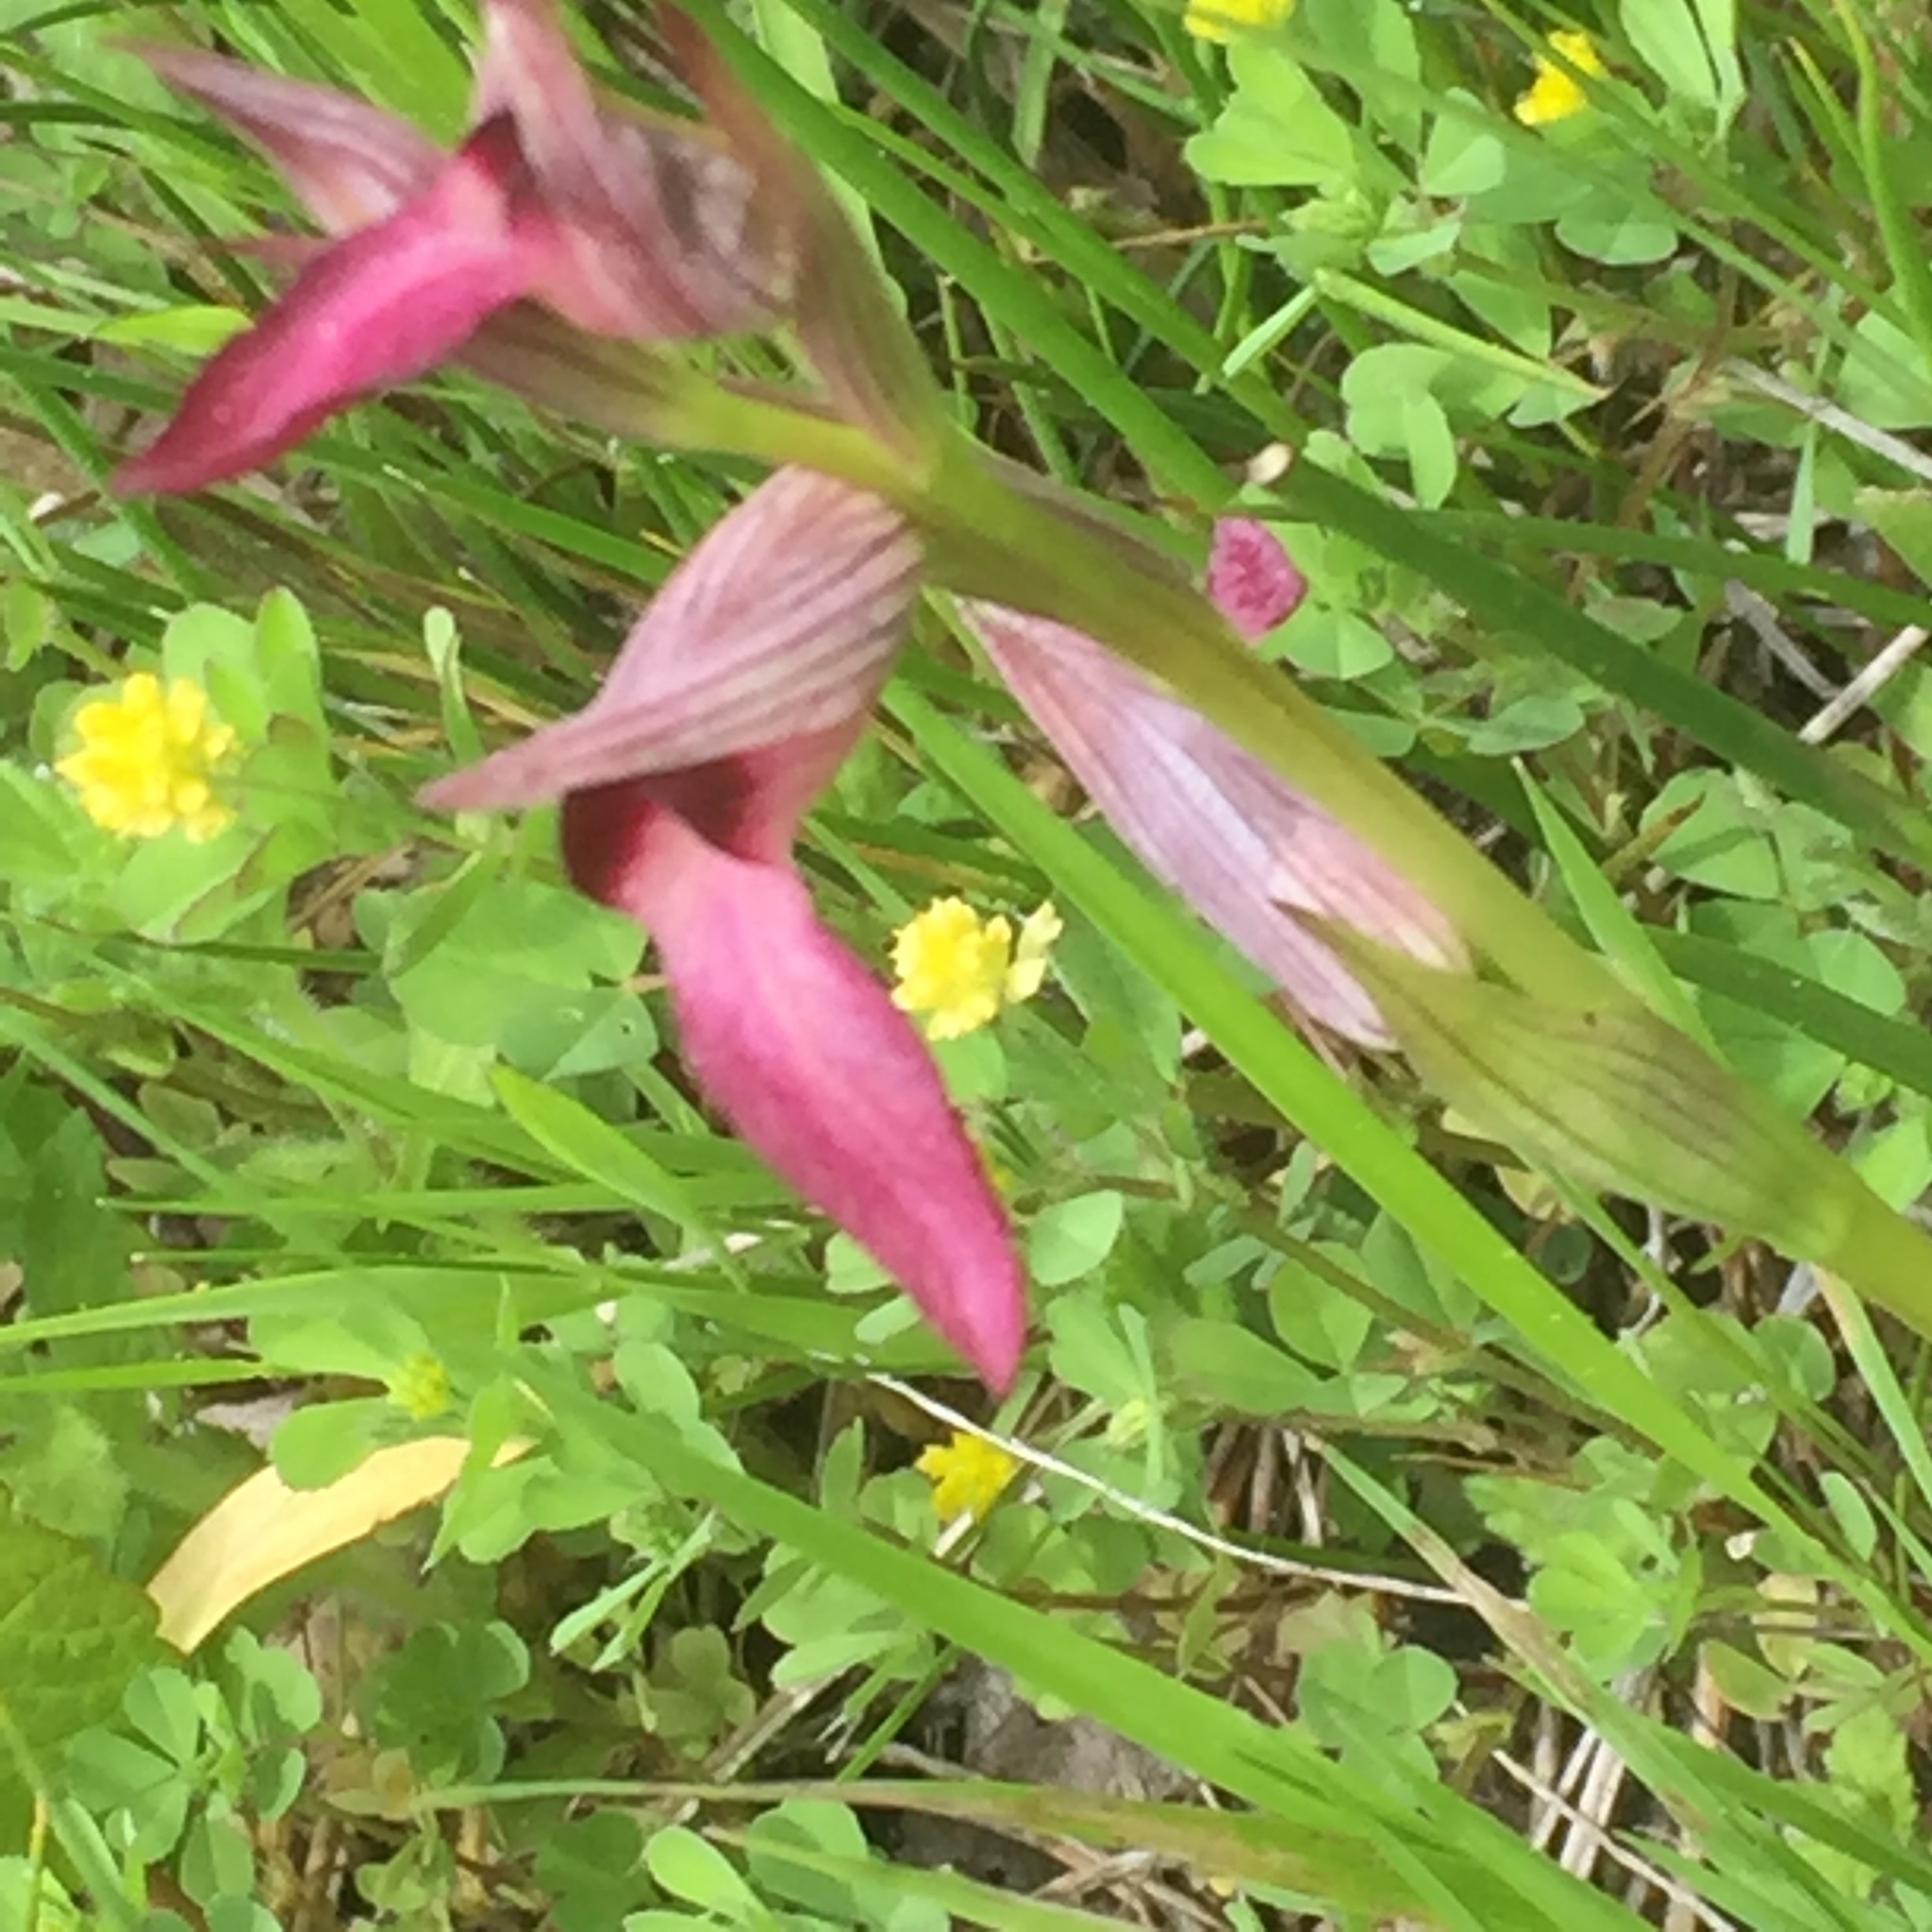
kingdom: Plantae
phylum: Tracheophyta
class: Liliopsida
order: Asparagales
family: Orchidaceae
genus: Serapias
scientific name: Serapias lingua
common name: Tongue-orchid
